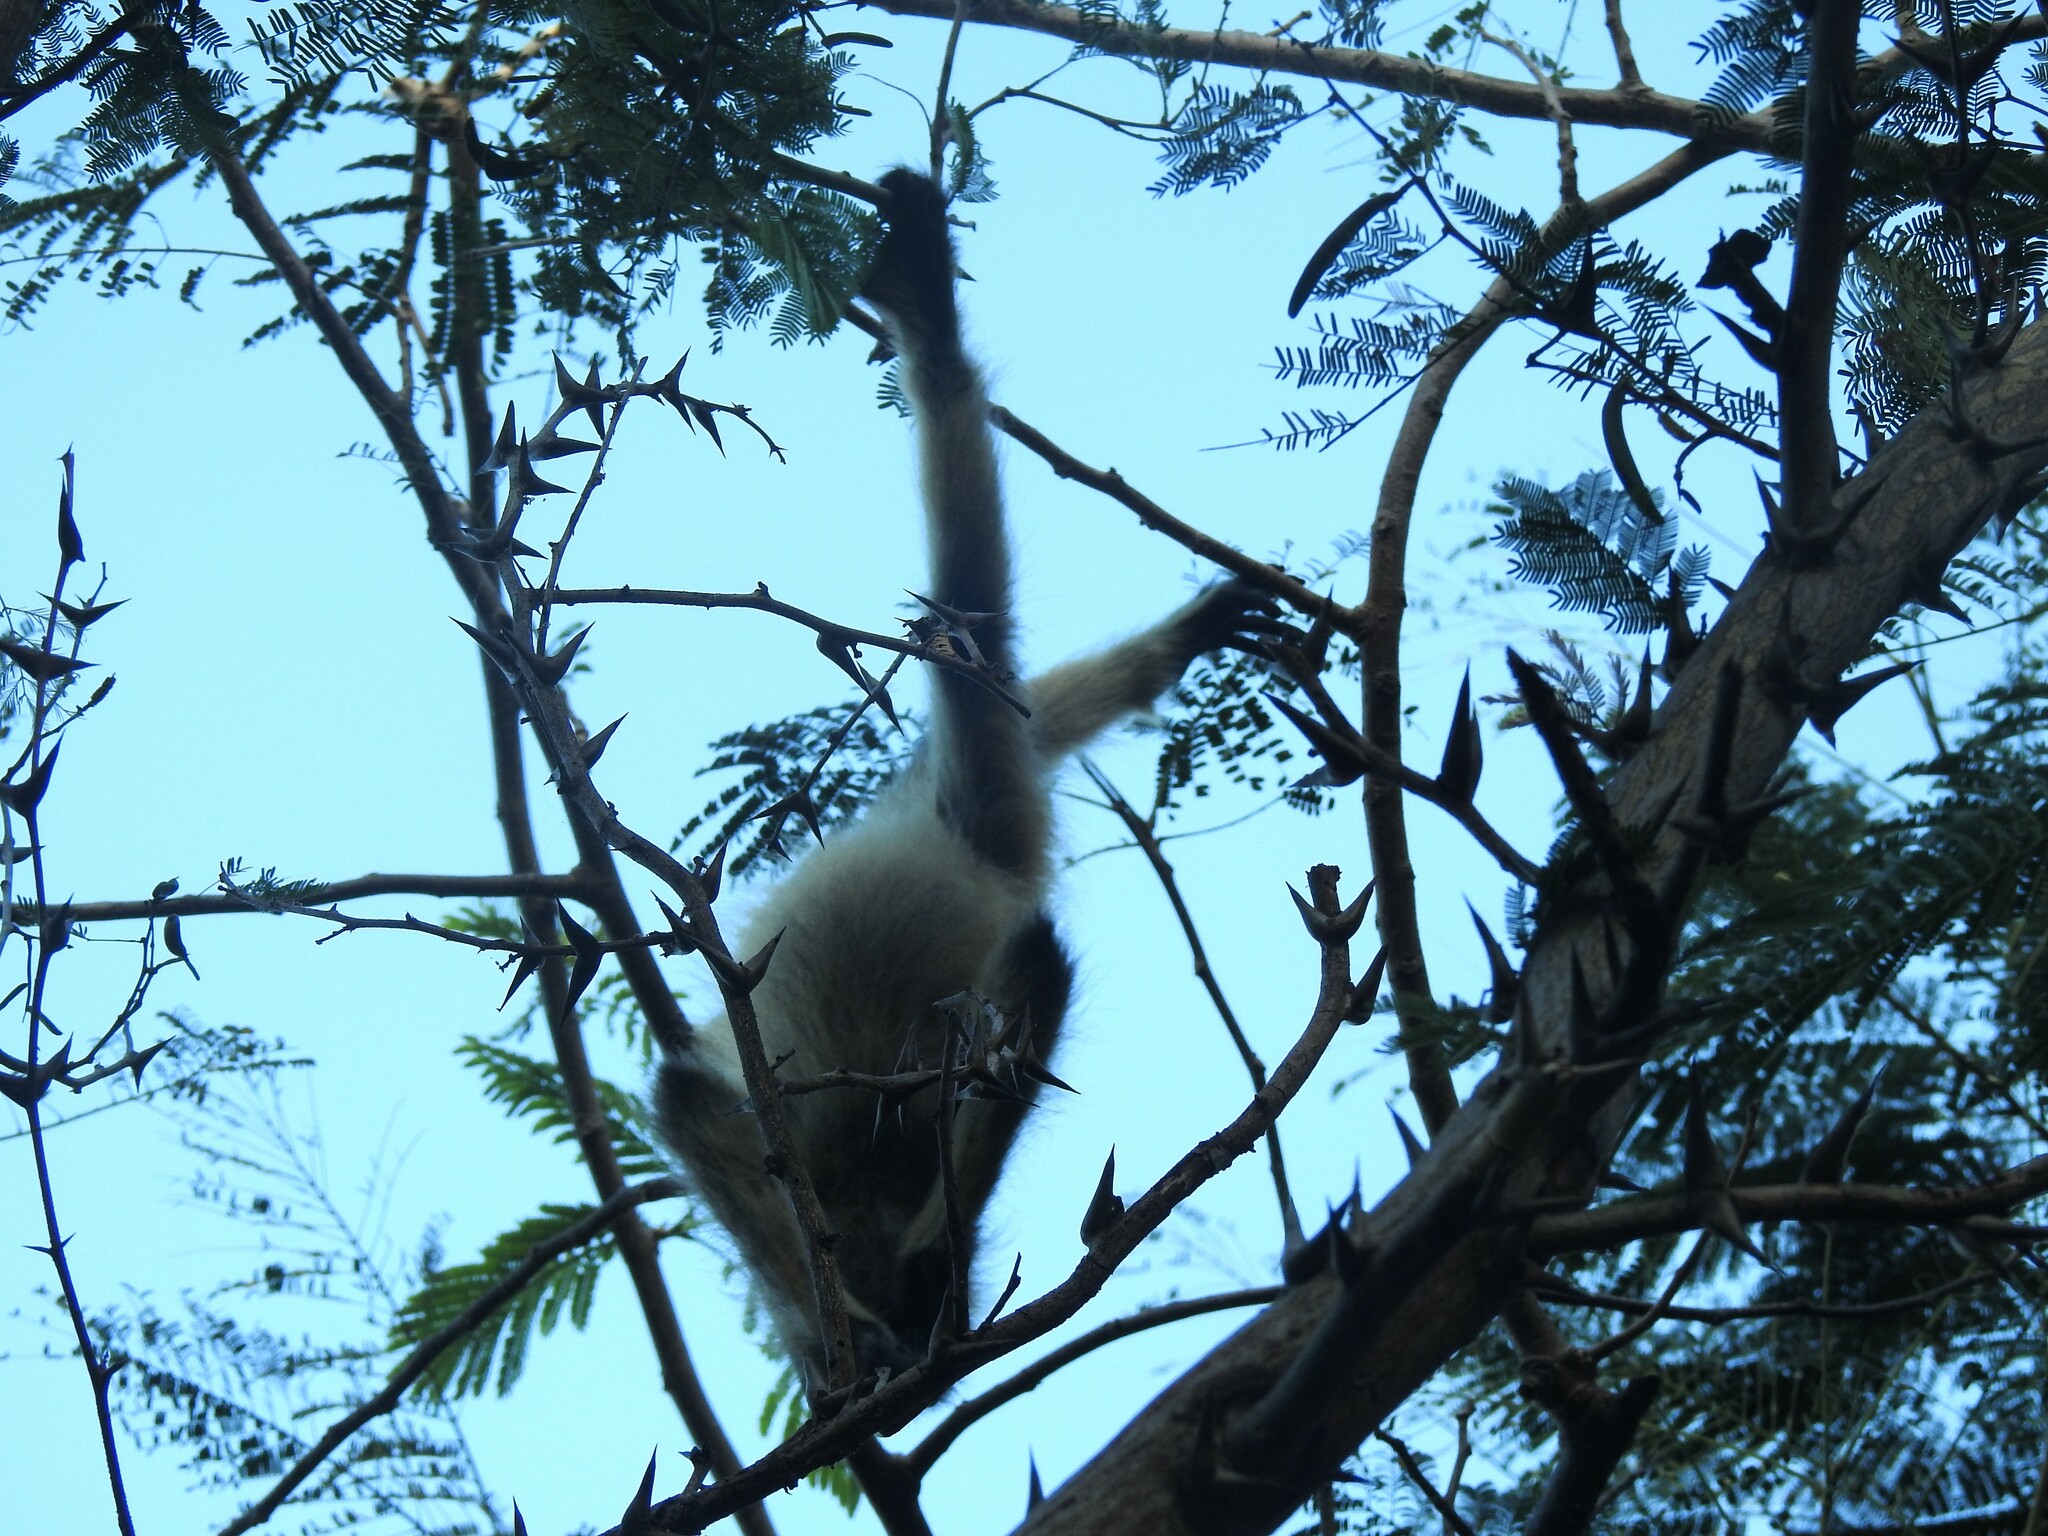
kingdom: Animalia
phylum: Chordata
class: Mammalia
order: Primates
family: Atelidae
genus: Ateles
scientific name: Ateles geoffroyi
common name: Black-handed spider monkey
